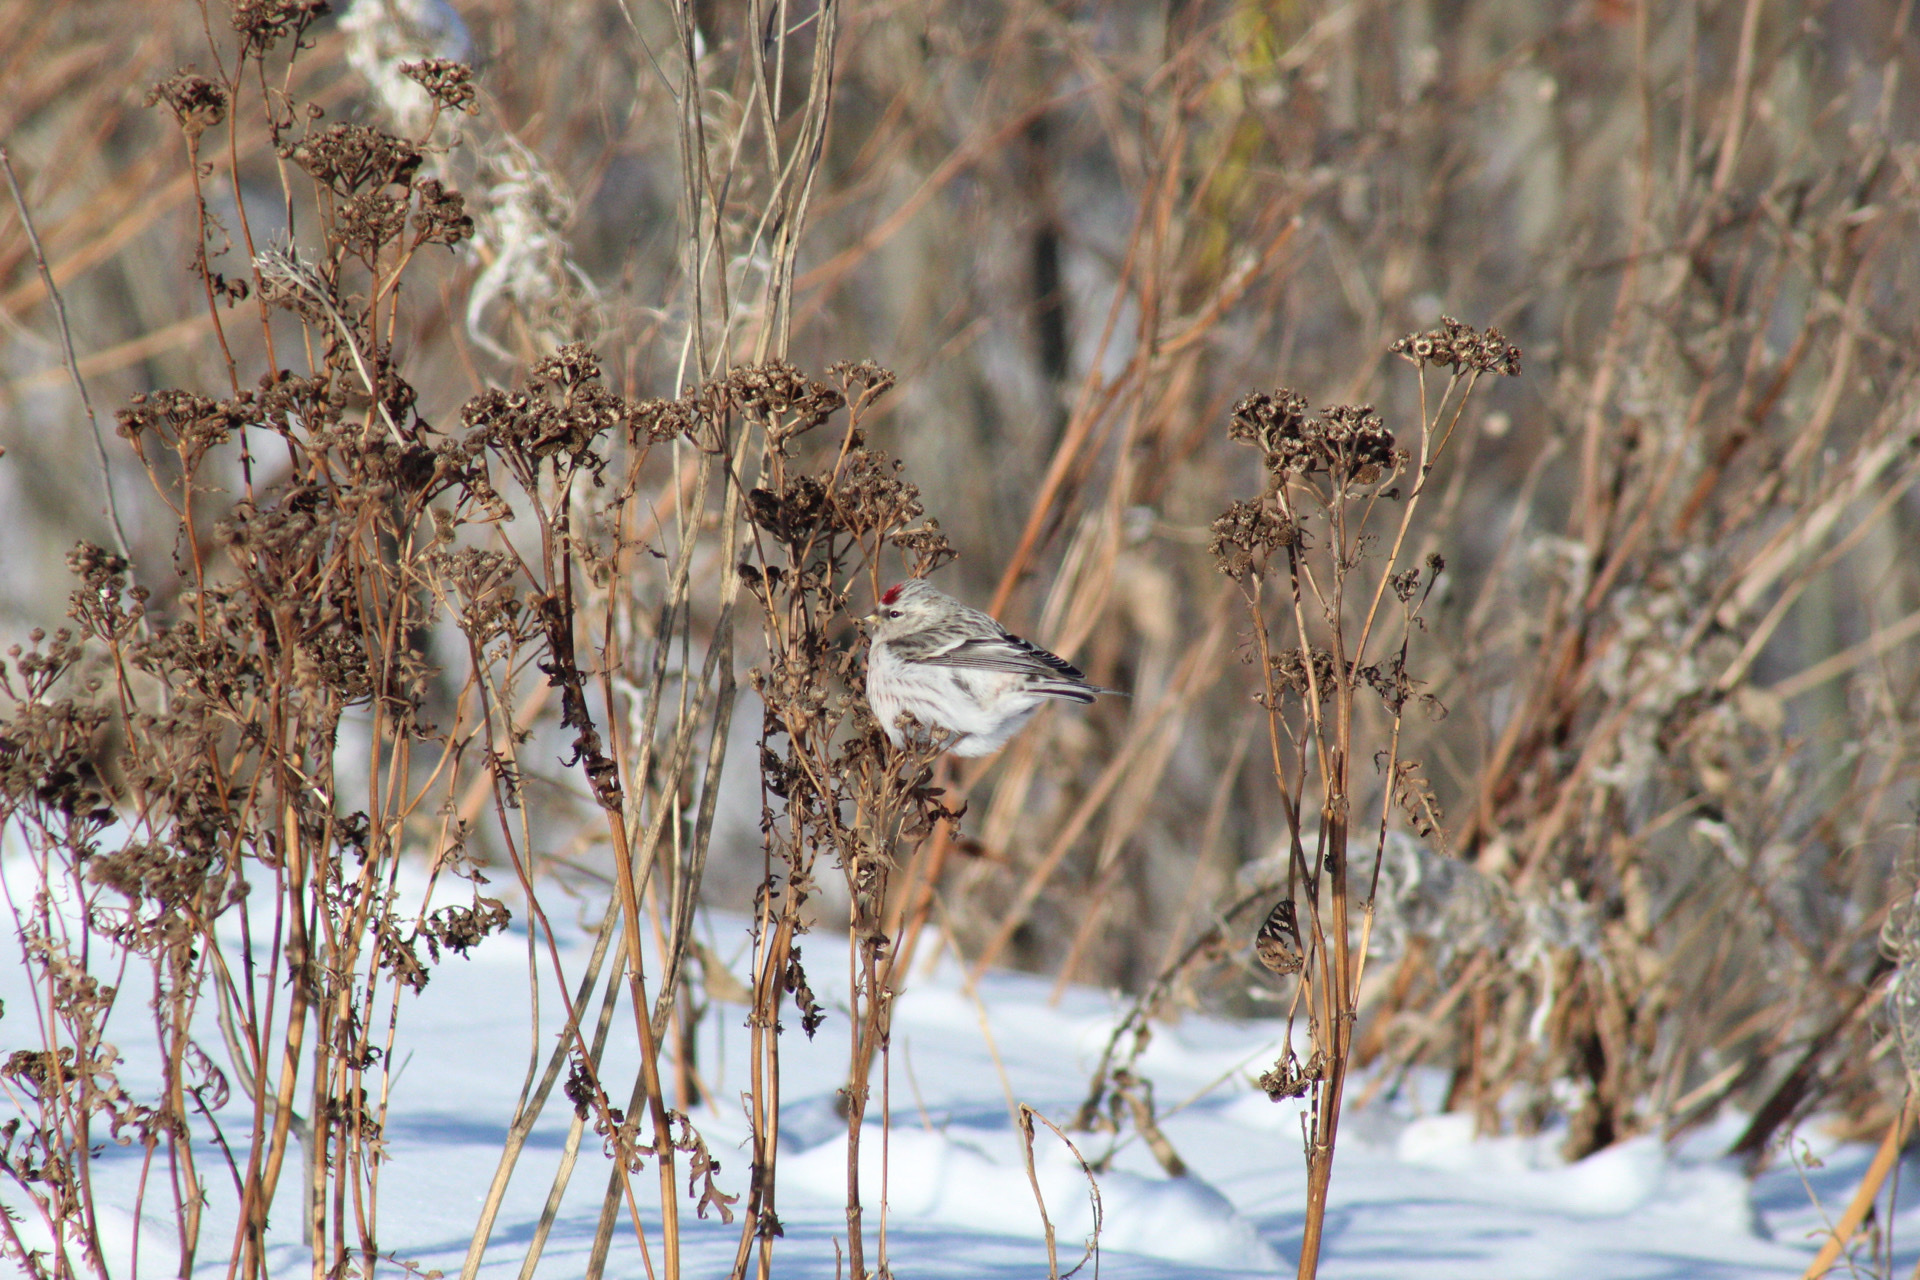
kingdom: Animalia
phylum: Chordata
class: Aves
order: Passeriformes
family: Fringillidae
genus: Acanthis
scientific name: Acanthis flammea
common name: Common redpoll
